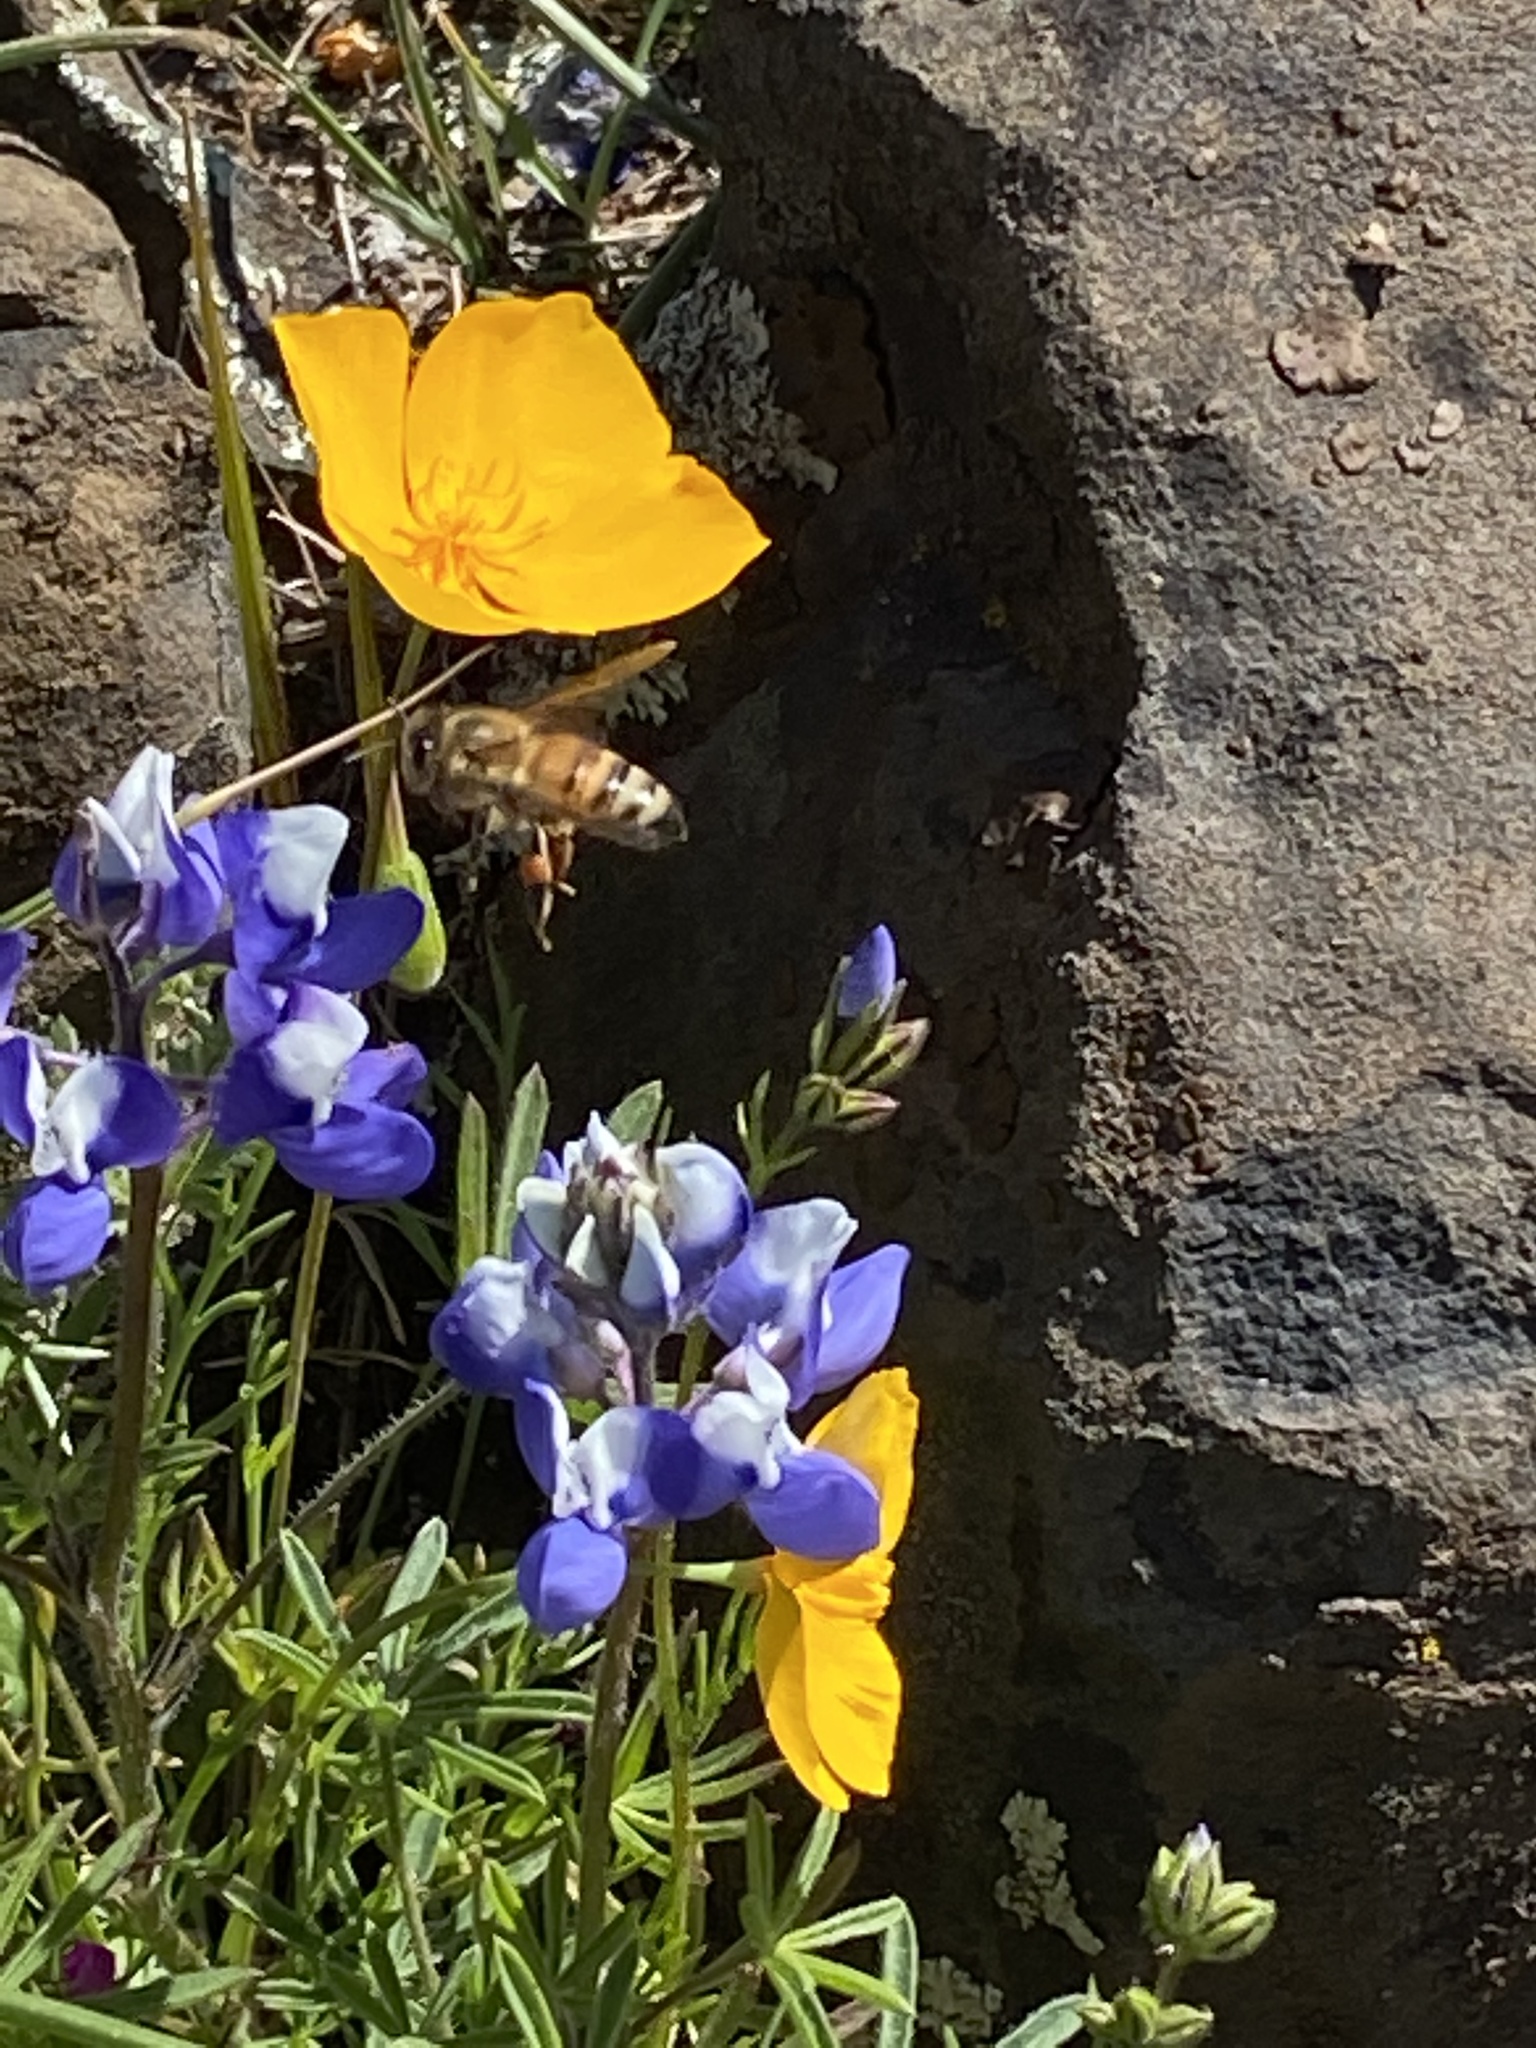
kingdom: Animalia
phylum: Arthropoda
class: Insecta
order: Hymenoptera
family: Apidae
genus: Apis
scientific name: Apis mellifera
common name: Honey bee
